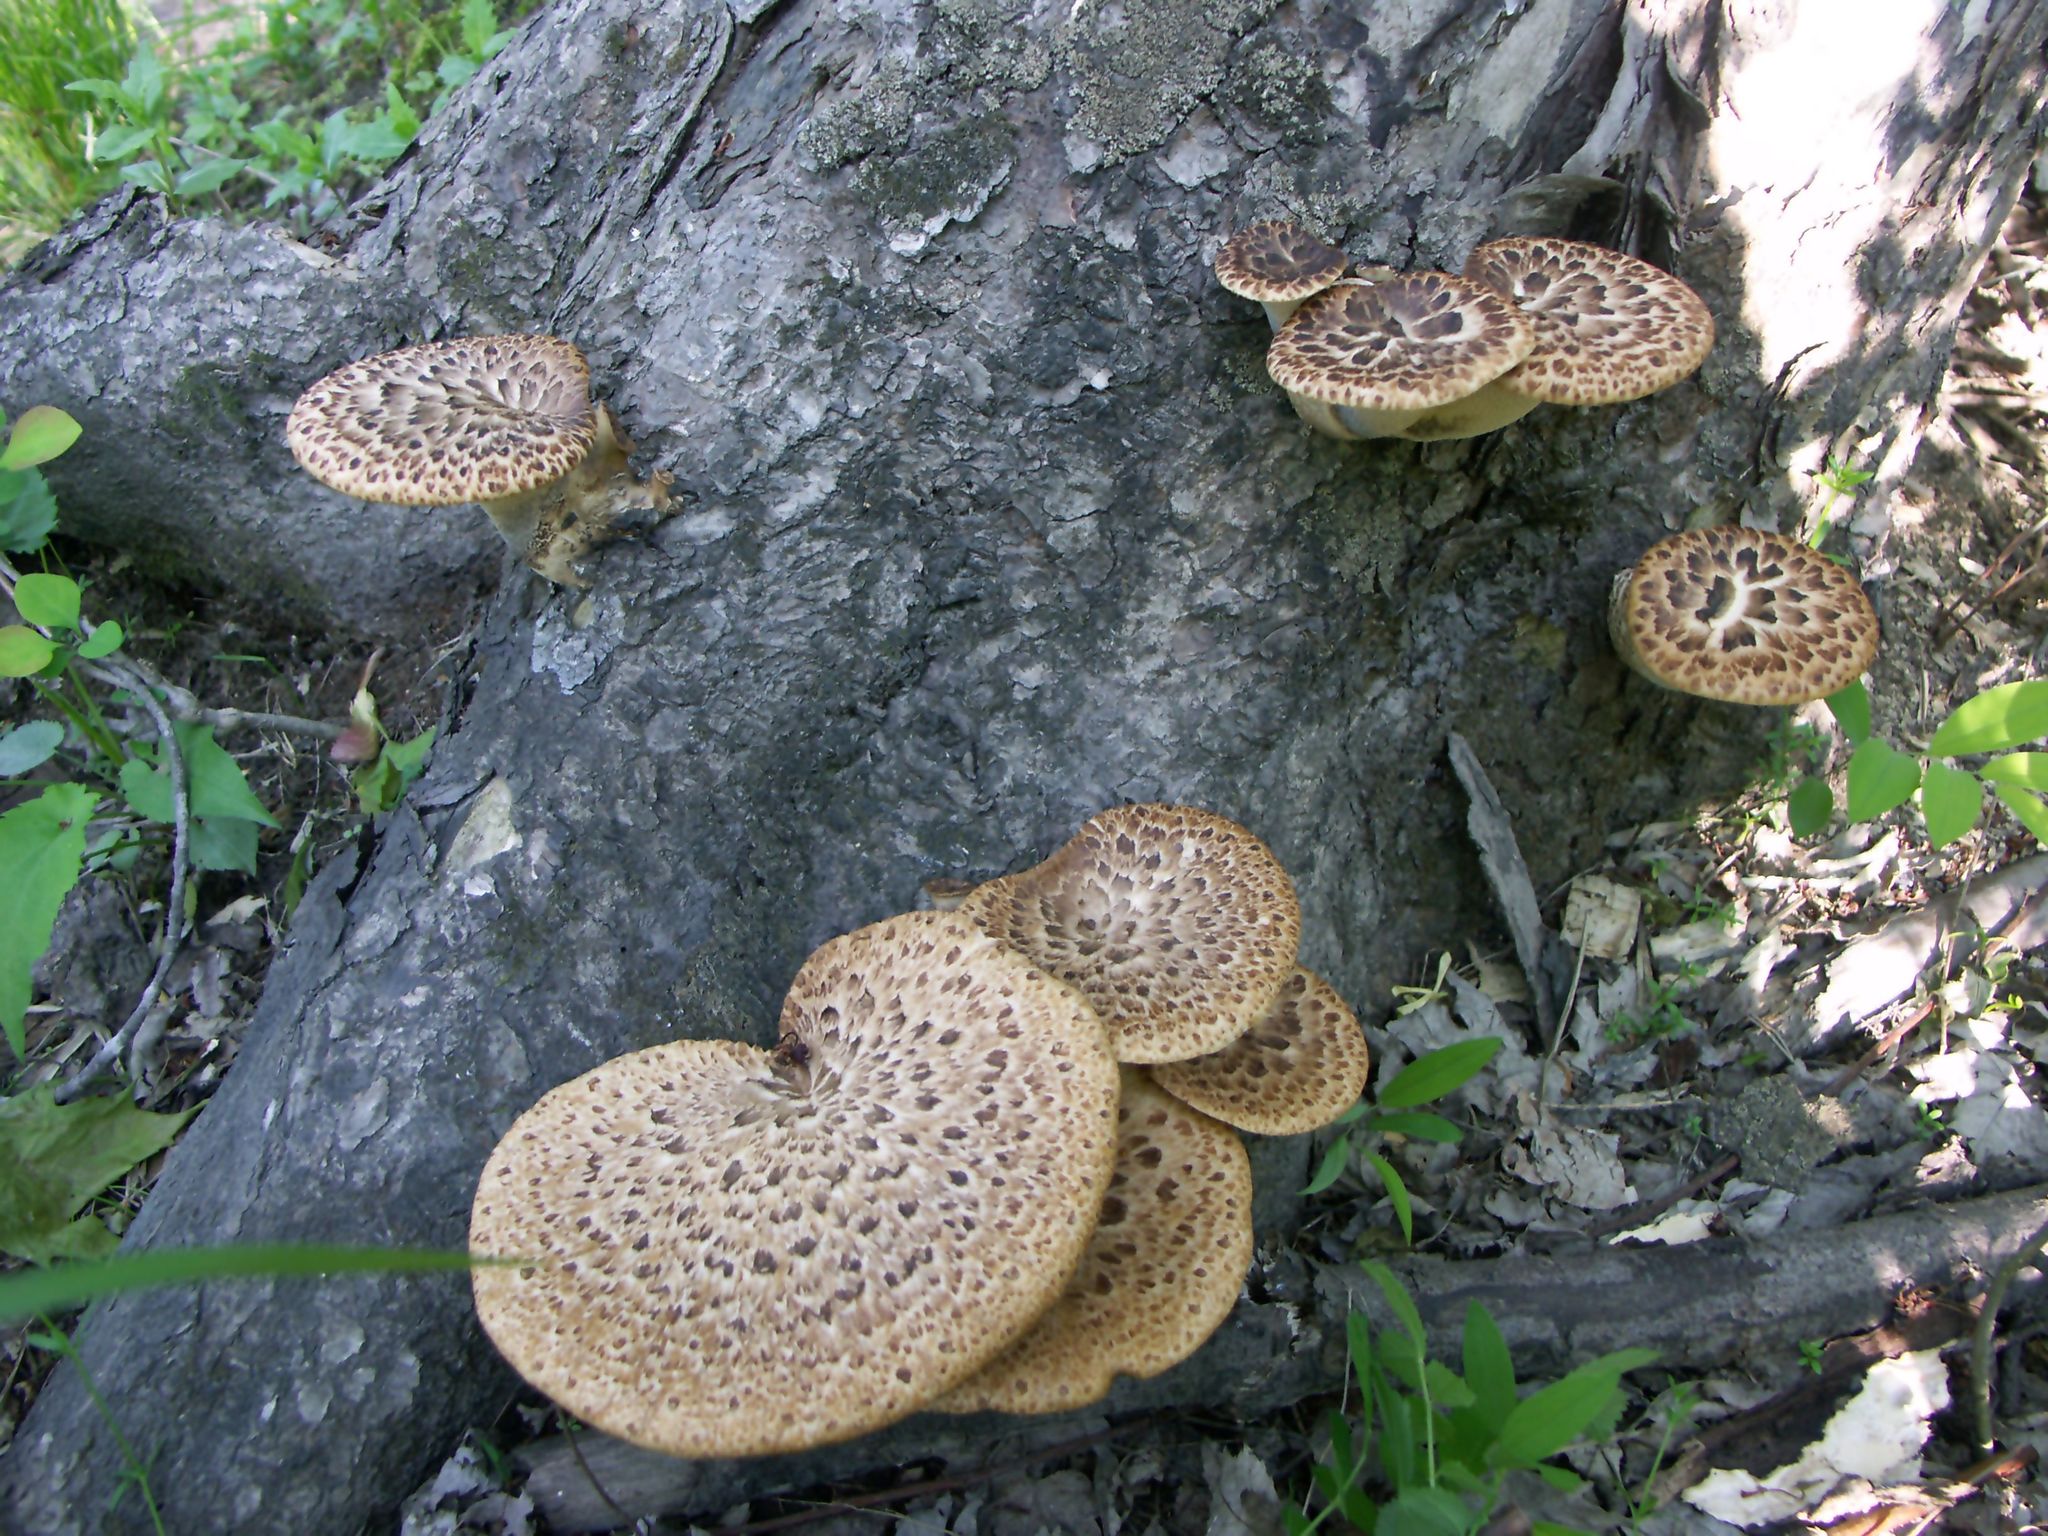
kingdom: Fungi
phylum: Basidiomycota
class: Agaricomycetes
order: Polyporales
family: Polyporaceae
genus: Cerioporus
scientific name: Cerioporus squamosus
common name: Dryad's saddle
